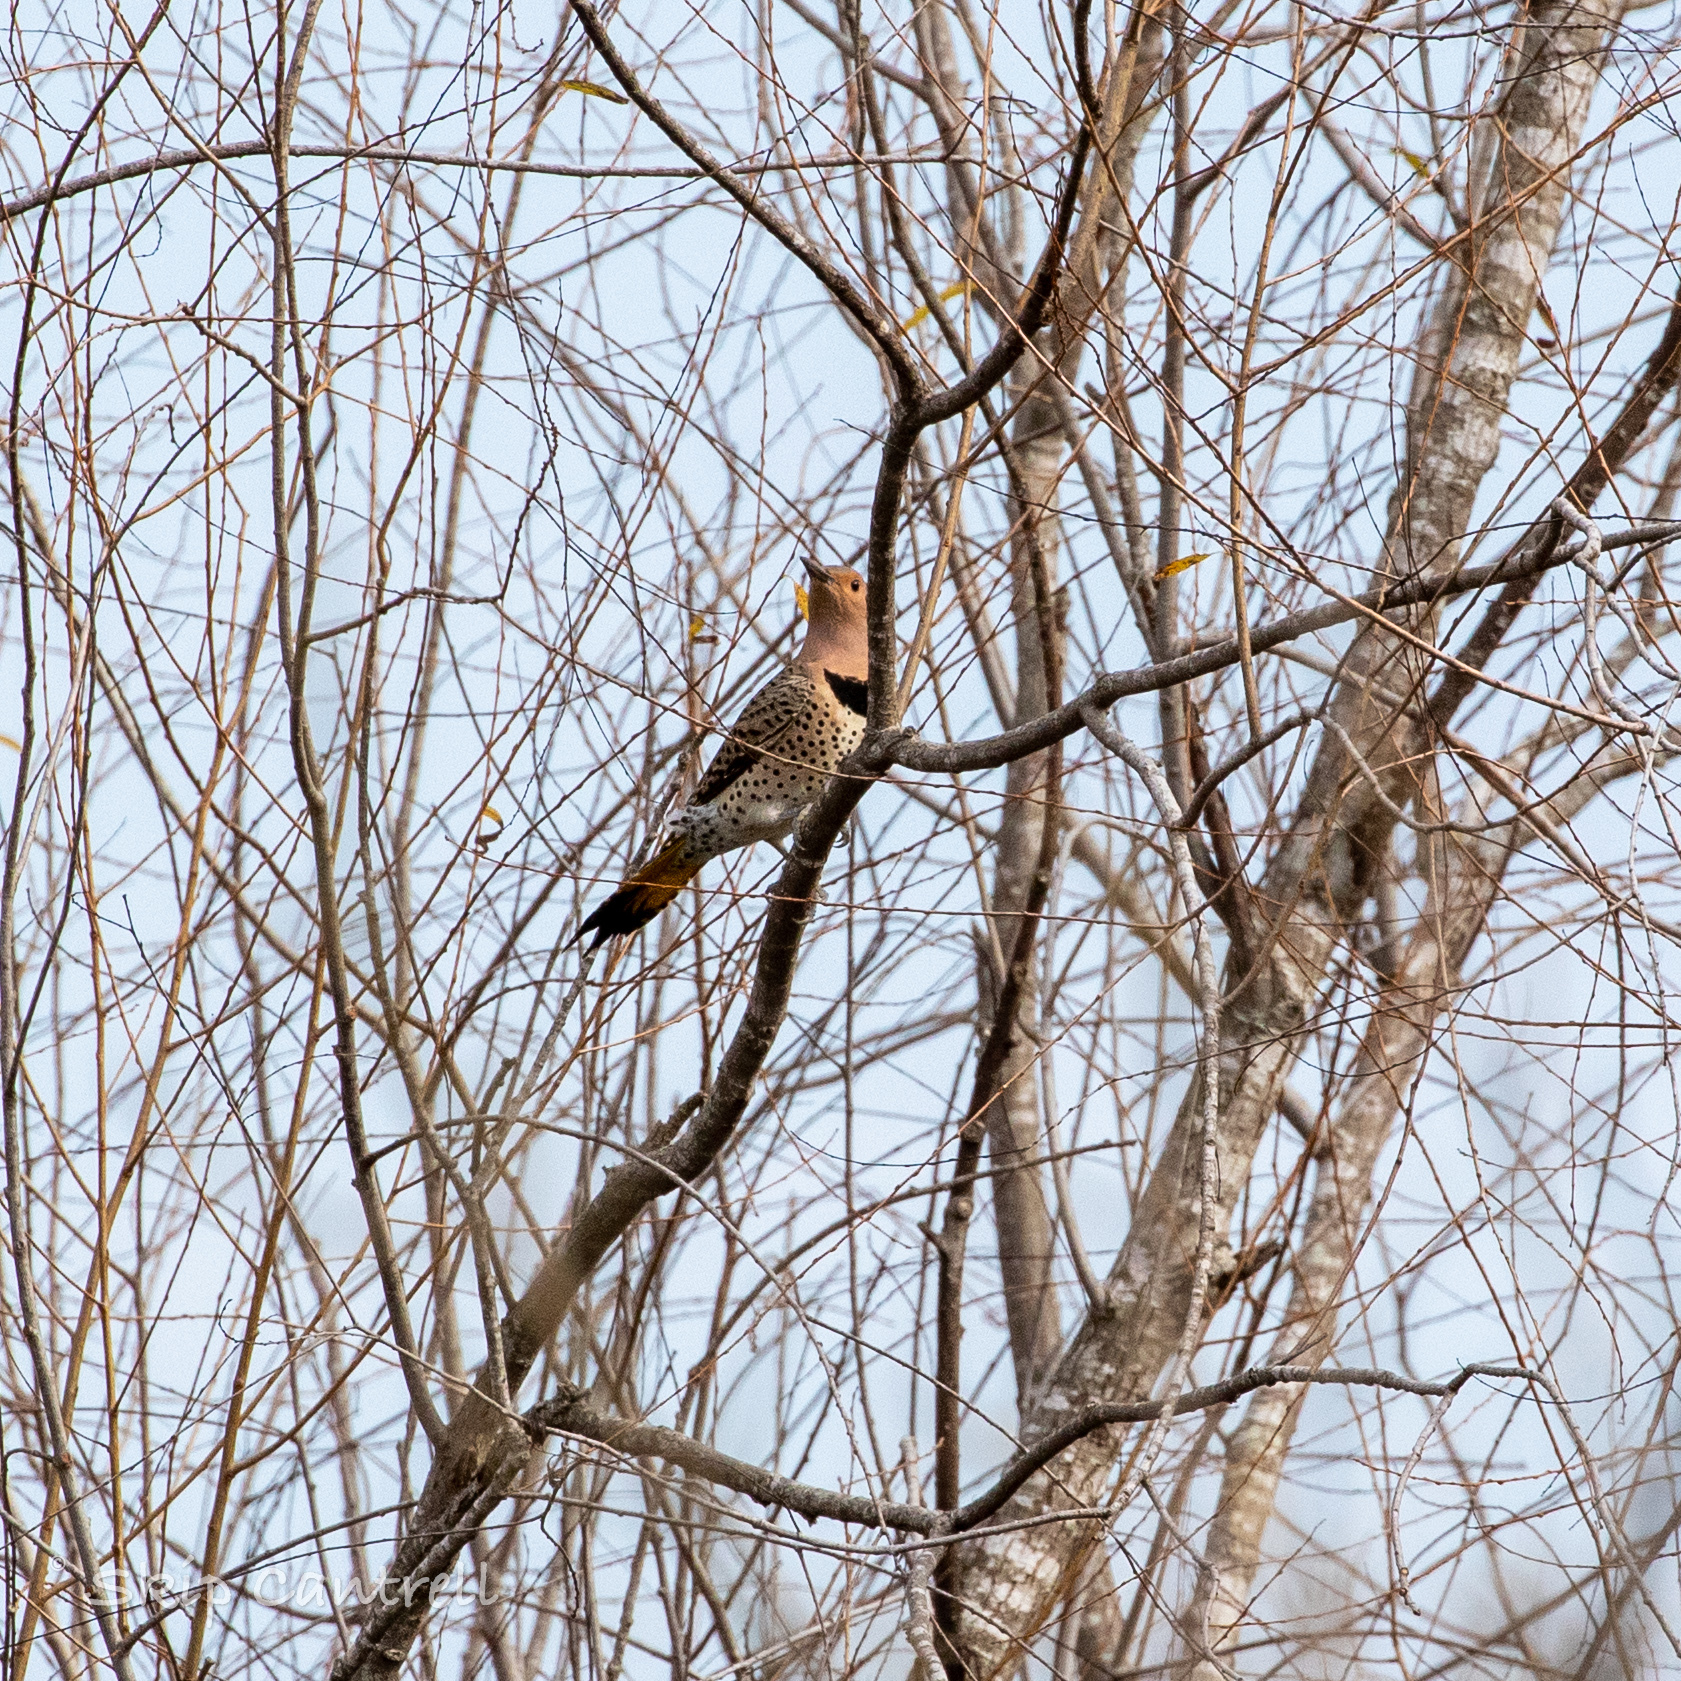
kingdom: Animalia
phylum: Chordata
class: Aves
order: Piciformes
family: Picidae
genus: Colaptes
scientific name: Colaptes auratus
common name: Northern flicker
